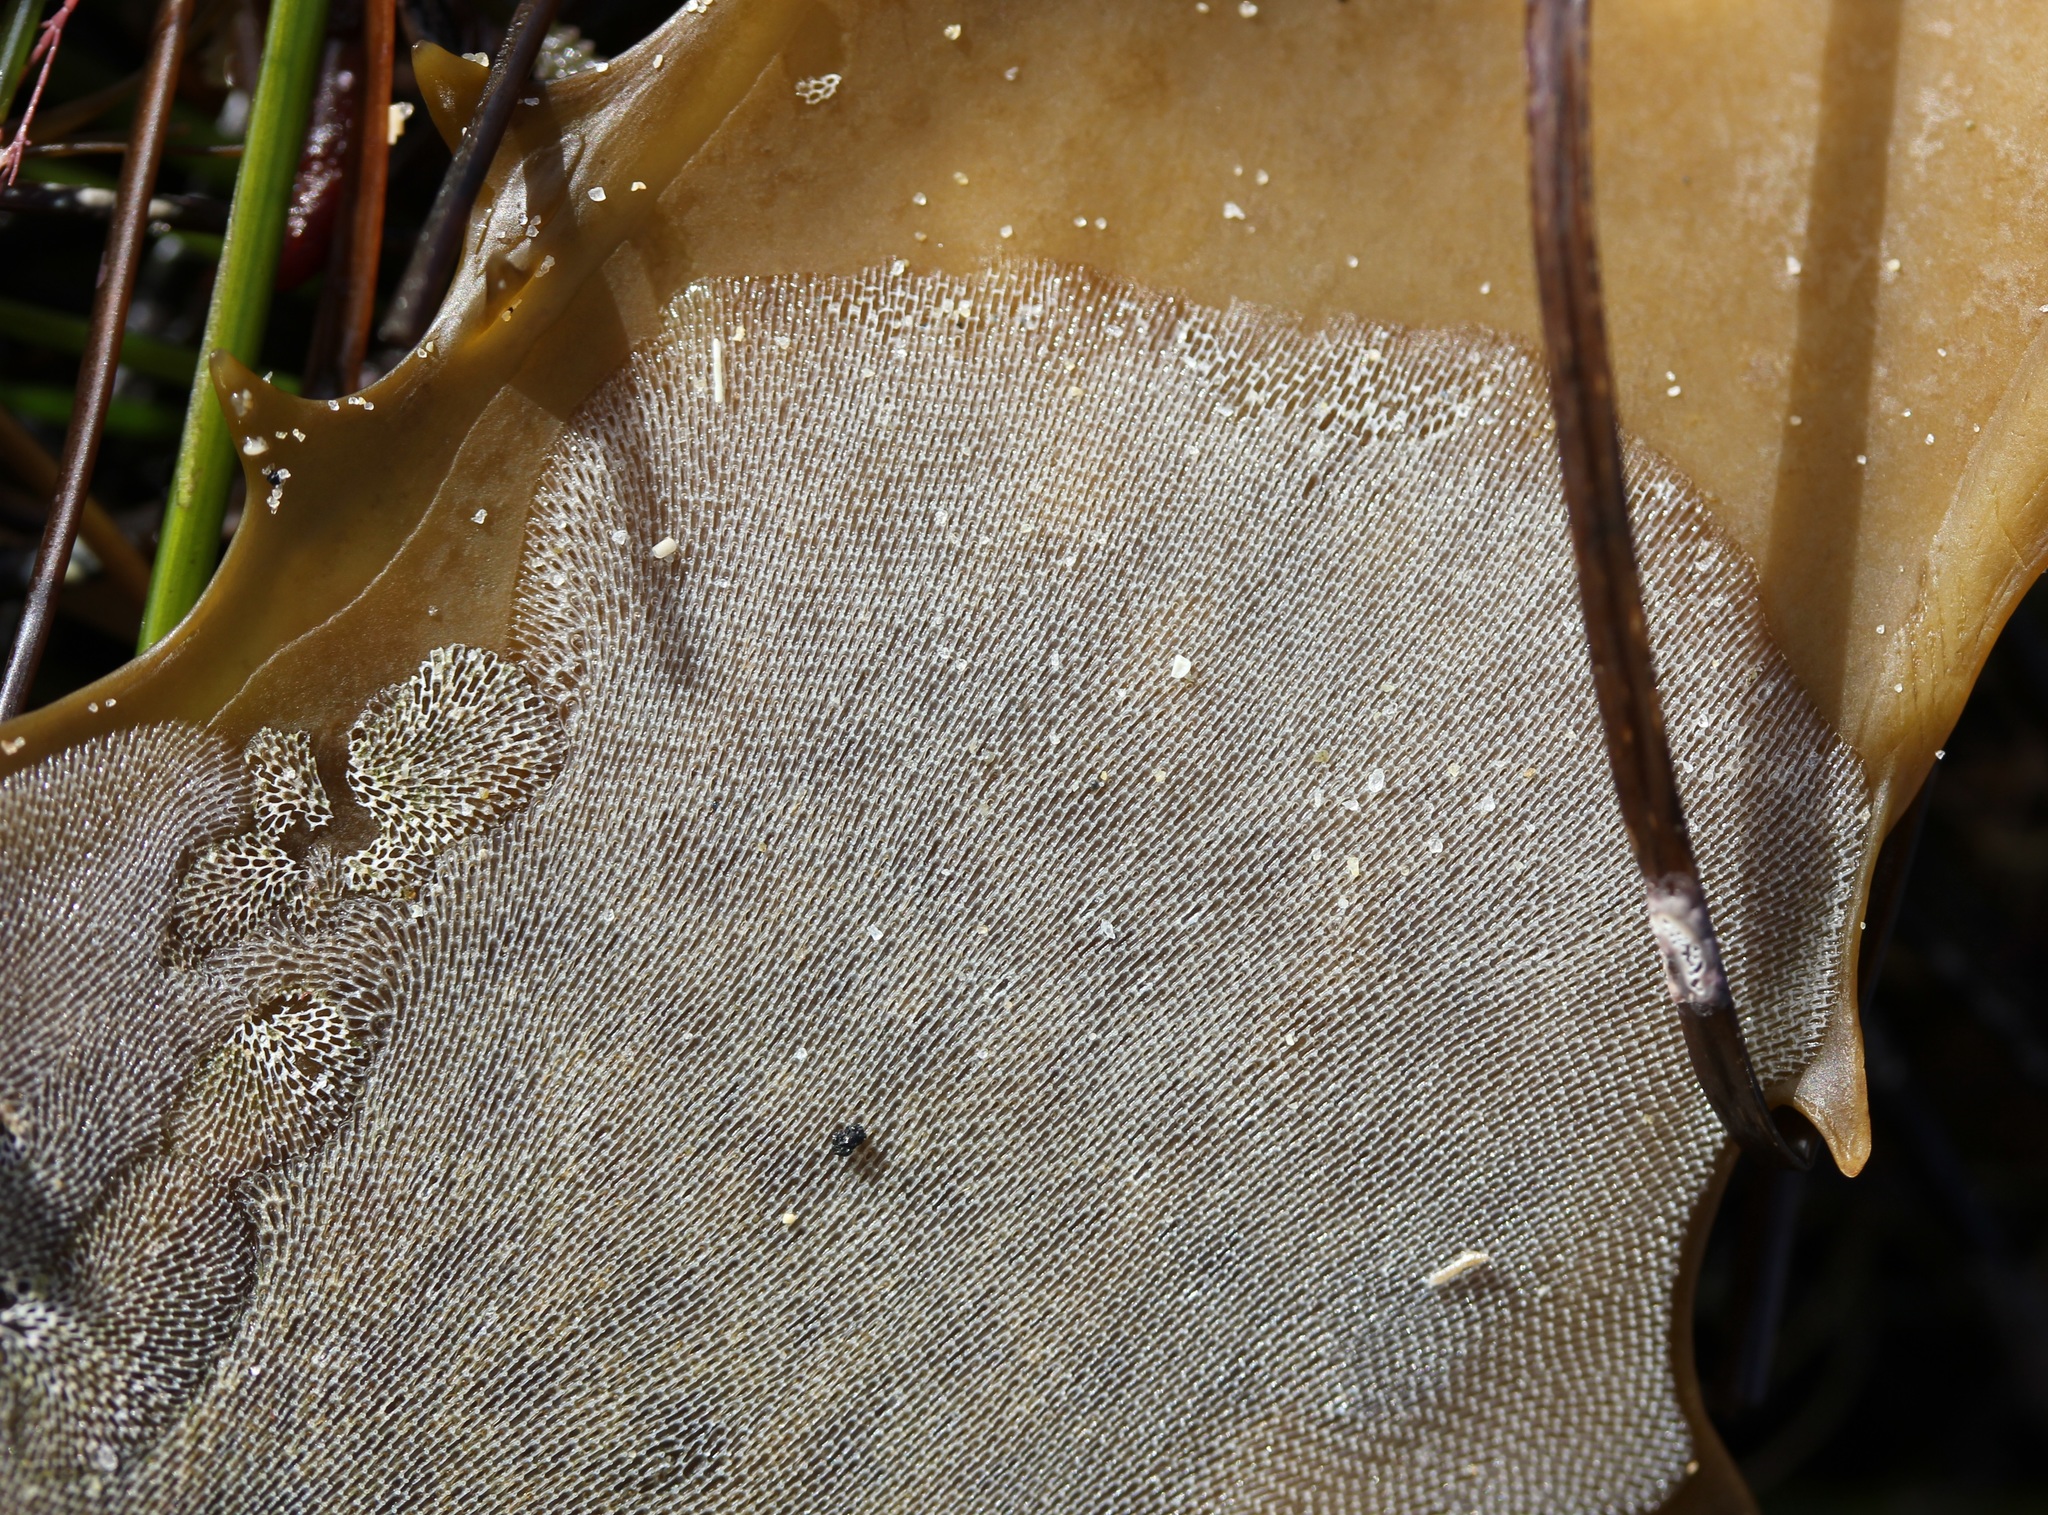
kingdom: Animalia
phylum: Bryozoa
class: Gymnolaemata
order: Cheilostomatida
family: Membraniporidae
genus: Membranipora
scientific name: Membranipora membranacea
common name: Sea mat
